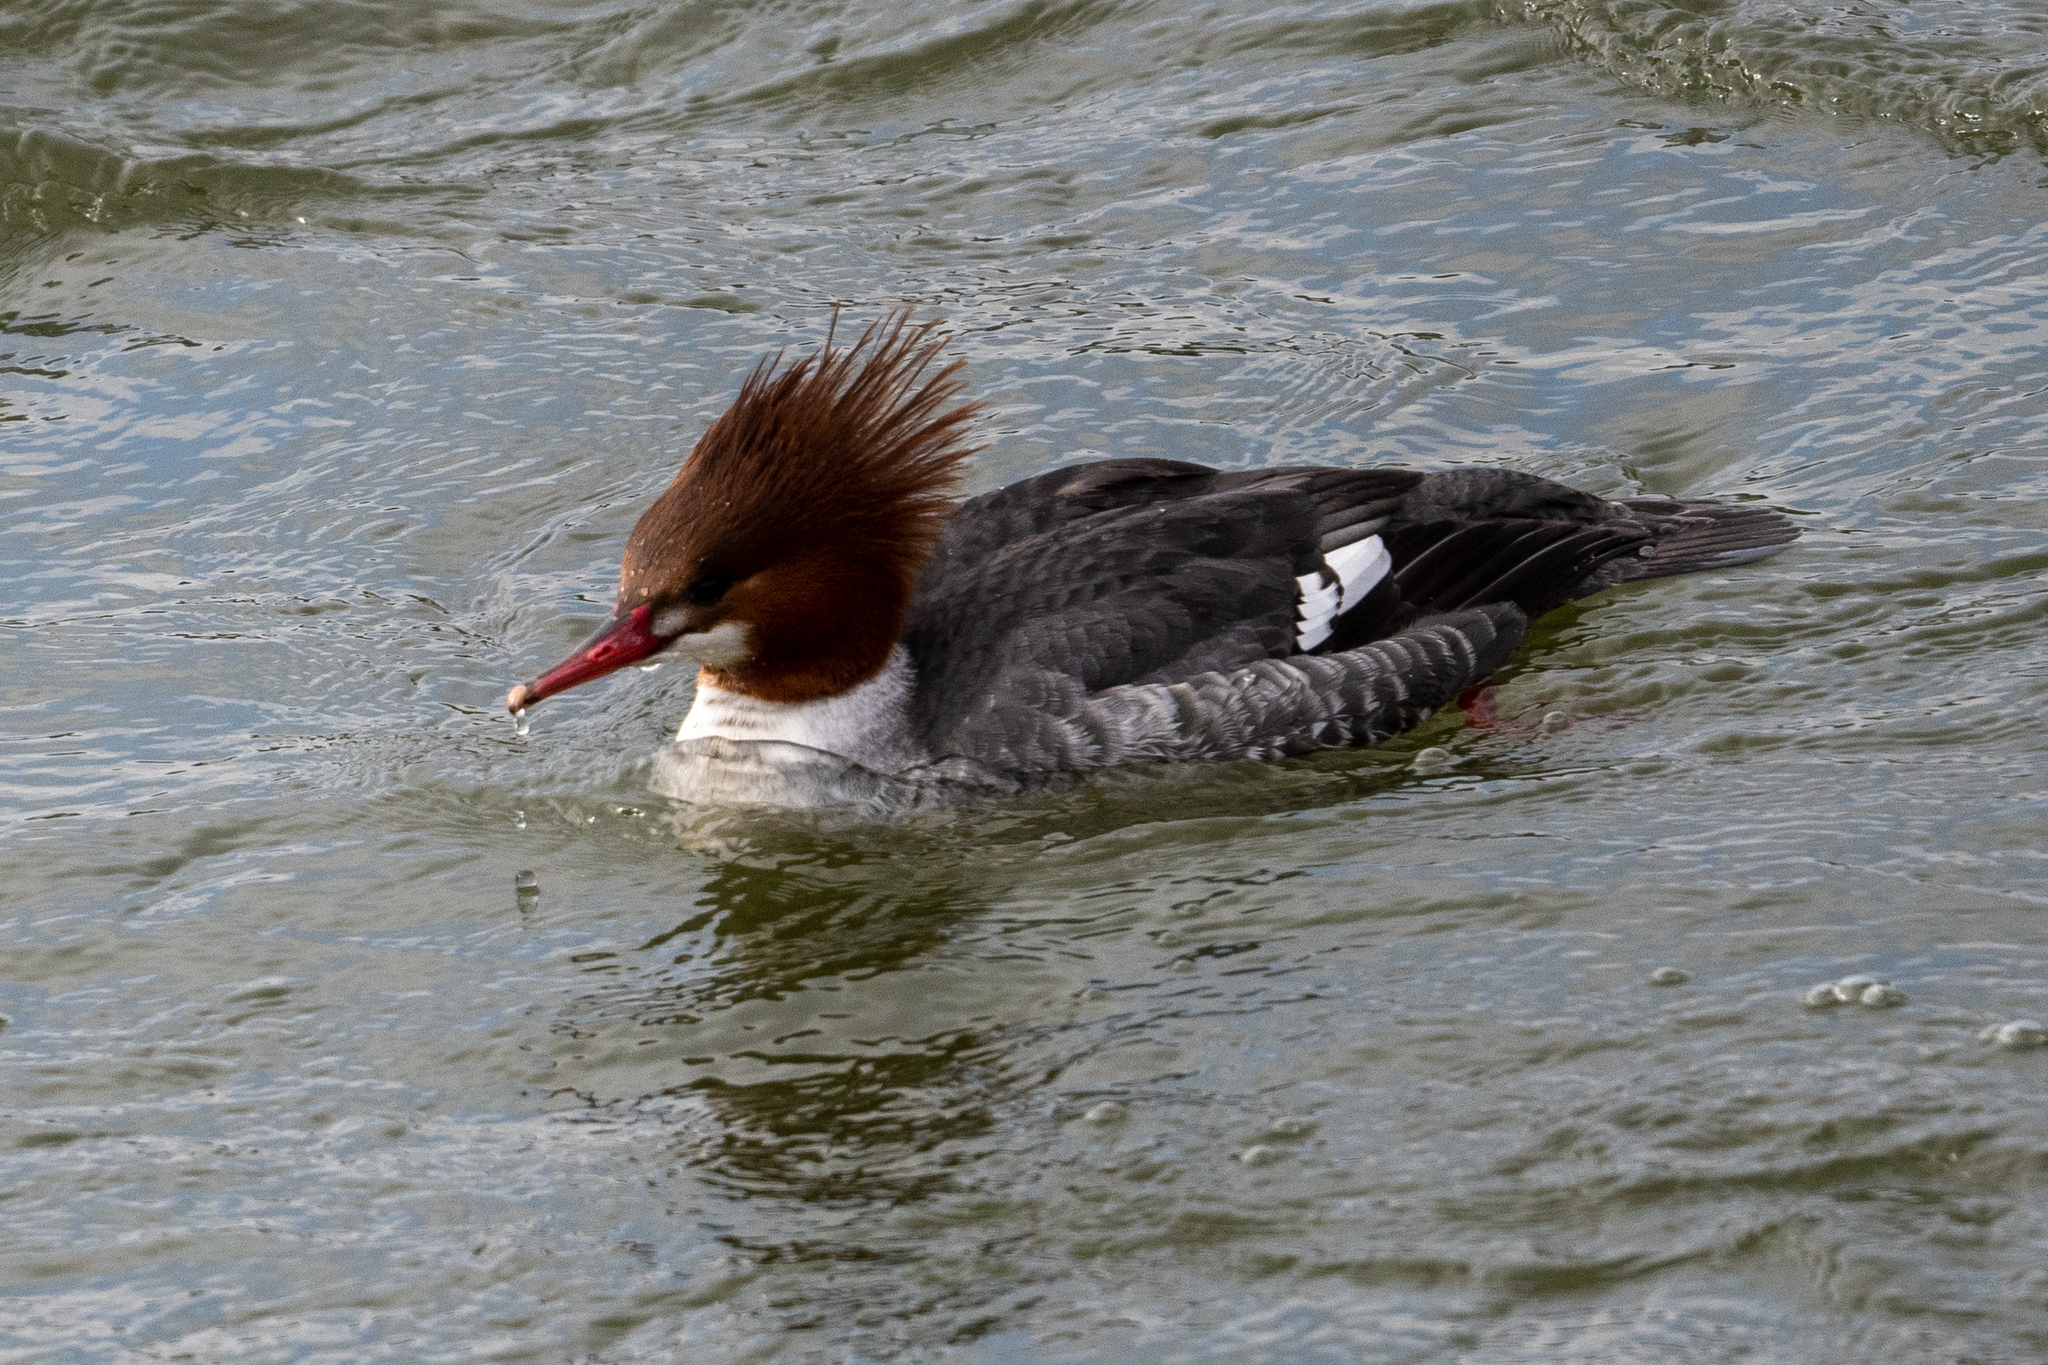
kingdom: Animalia
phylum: Chordata
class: Aves
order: Anseriformes
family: Anatidae
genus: Mergus
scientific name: Mergus merganser
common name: Common merganser
